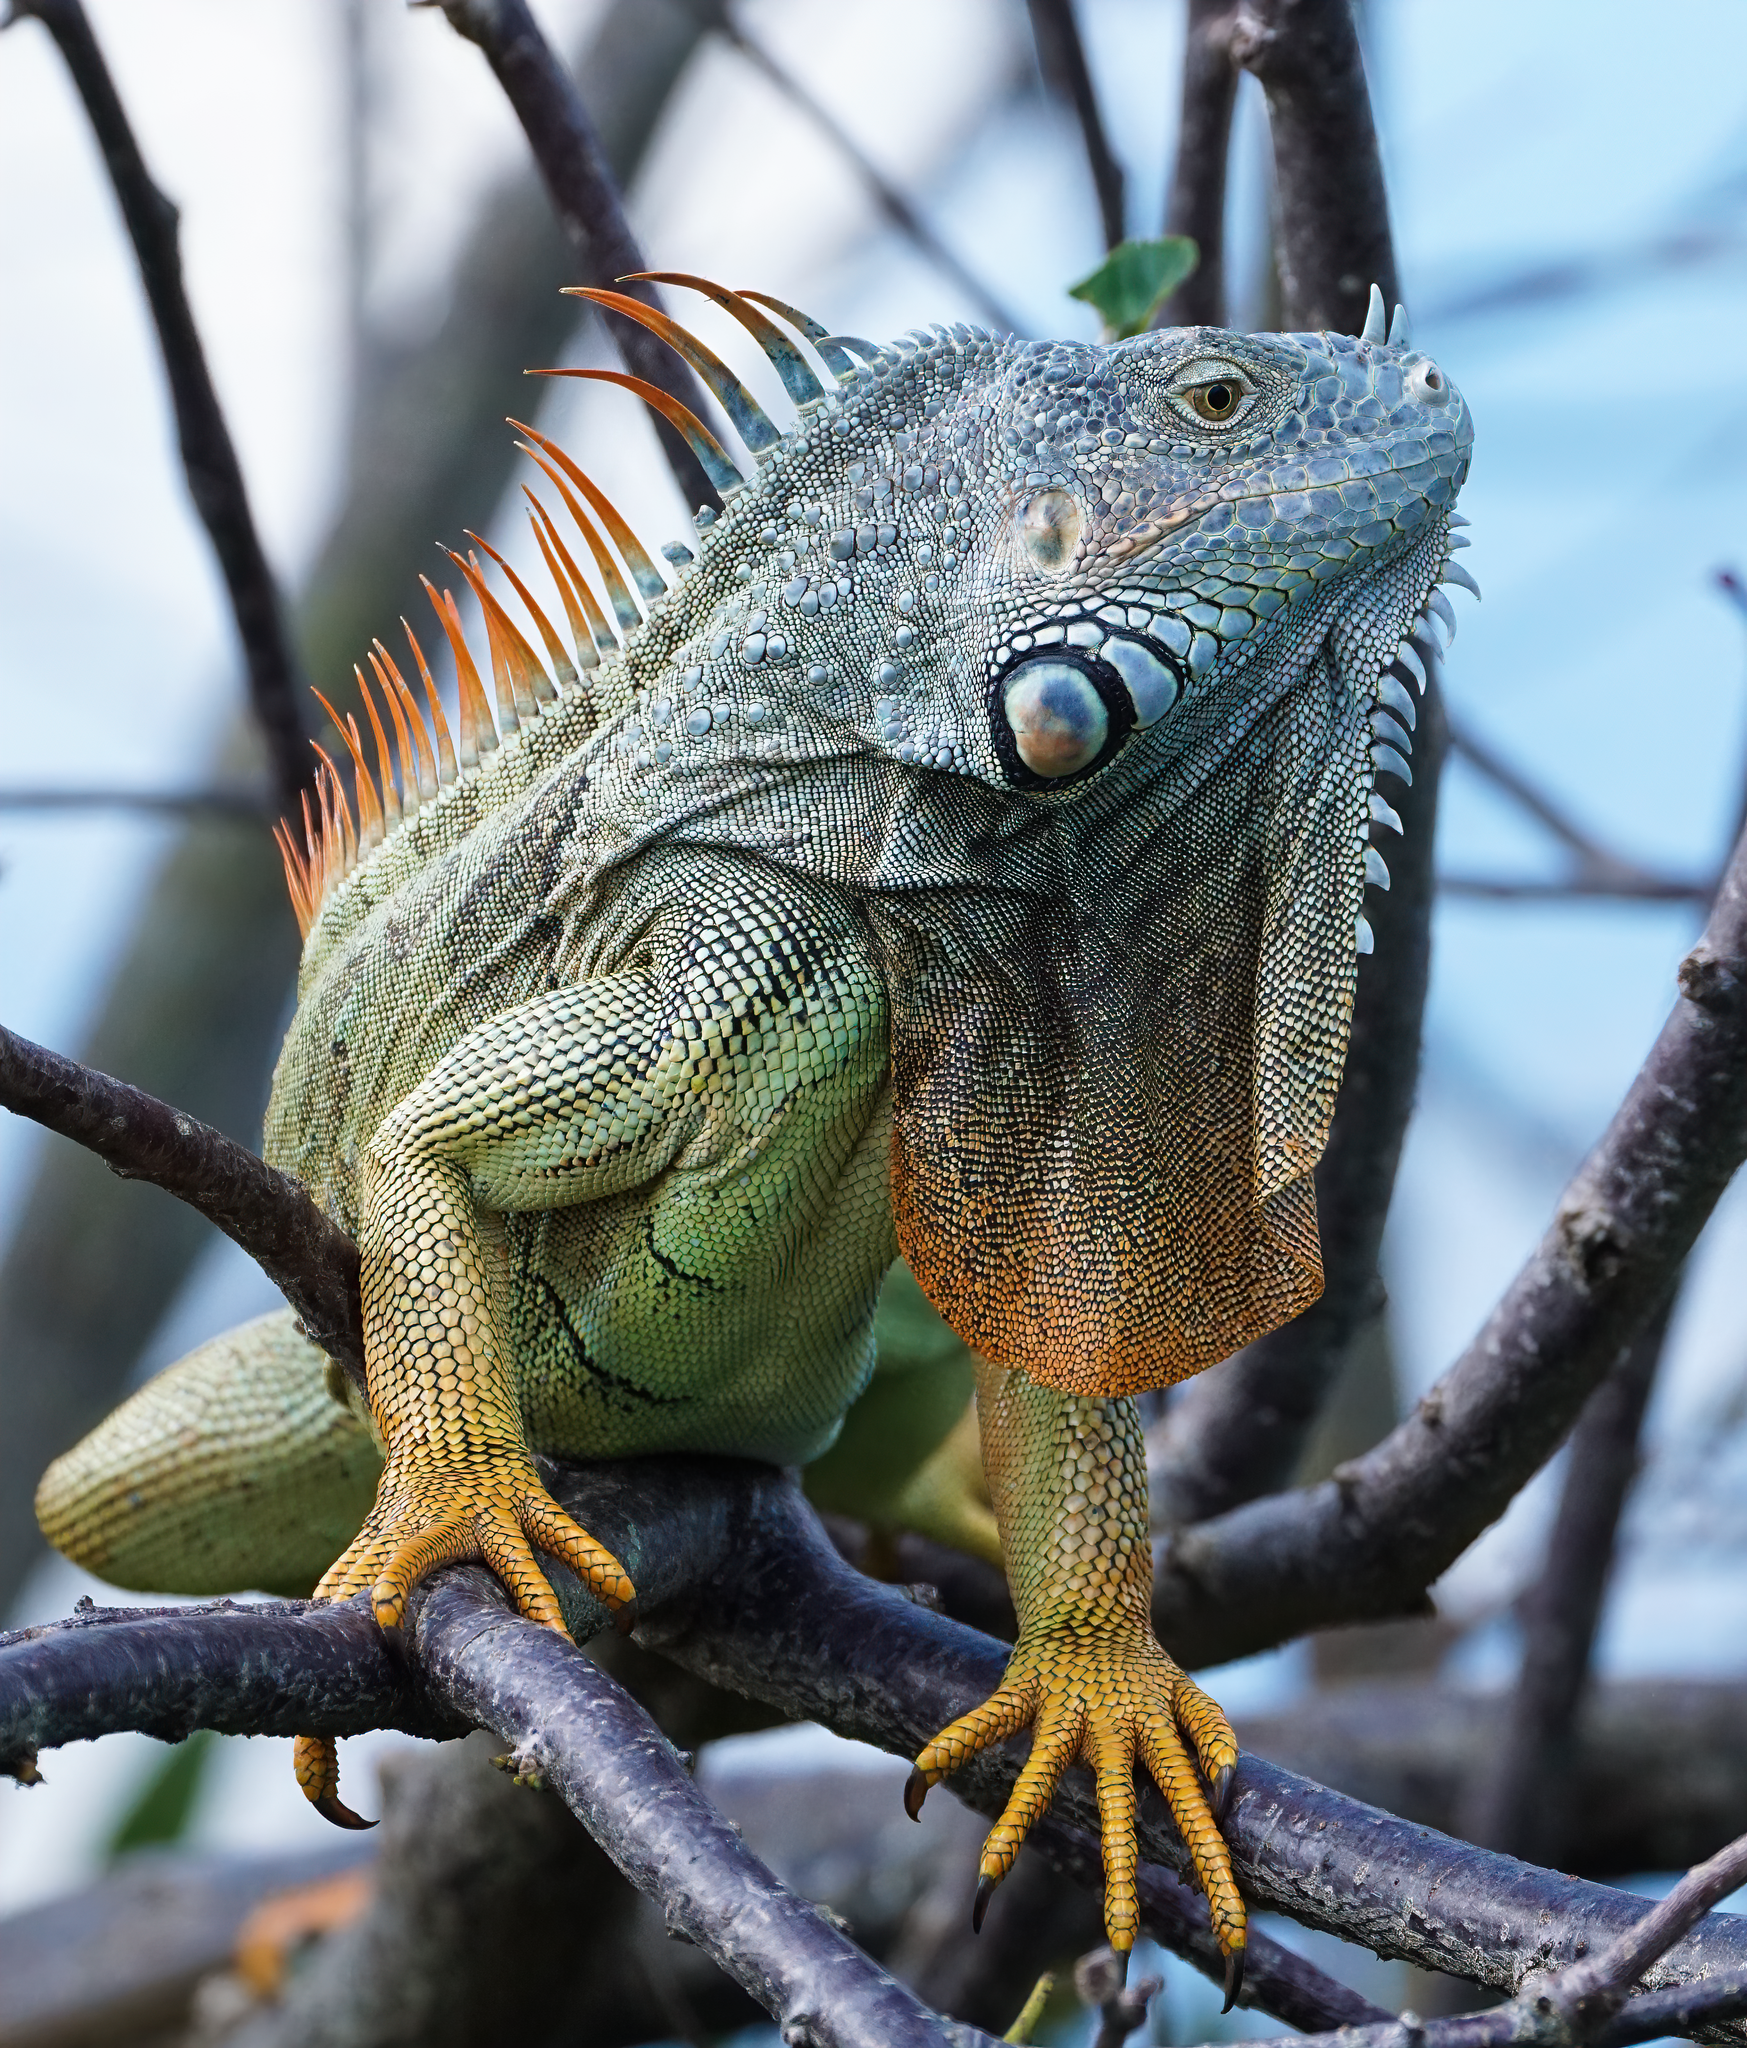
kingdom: Animalia
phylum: Chordata
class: Squamata
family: Iguanidae
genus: Iguana
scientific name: Iguana iguana
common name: Green iguana
